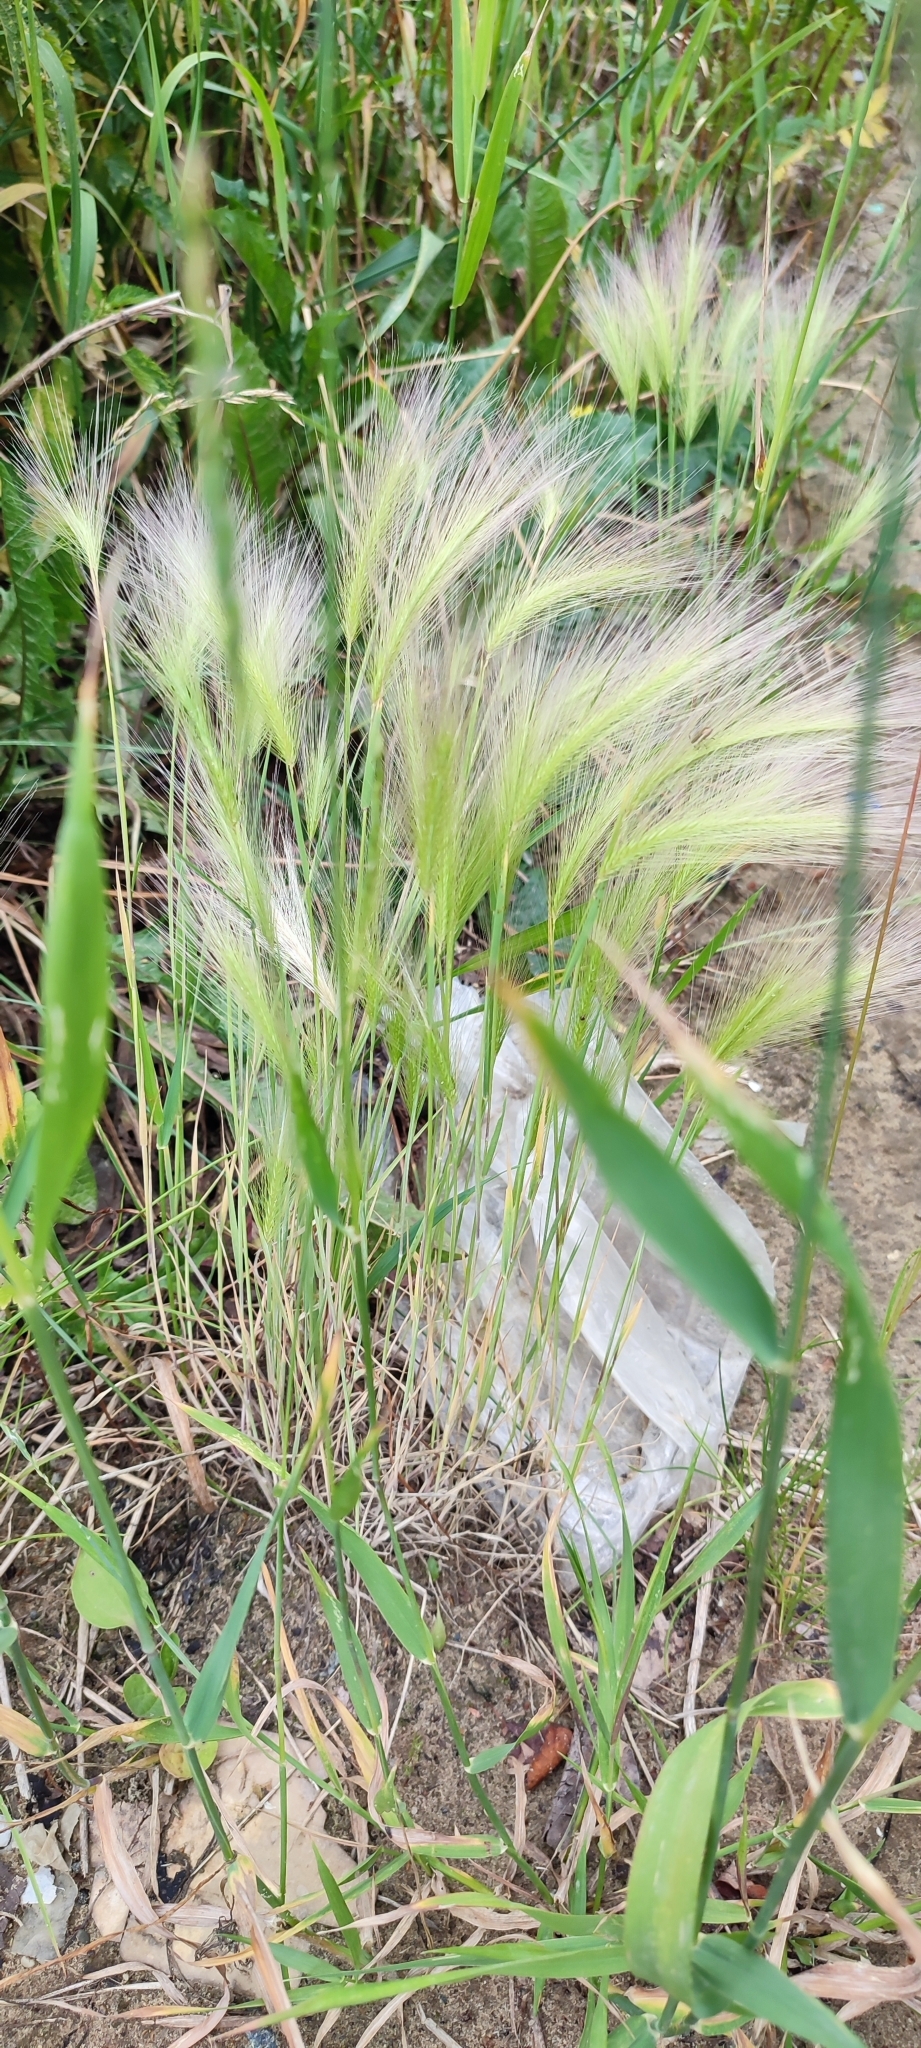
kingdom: Plantae
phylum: Tracheophyta
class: Liliopsida
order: Poales
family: Poaceae
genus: Hordeum
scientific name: Hordeum jubatum
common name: Foxtail barley
